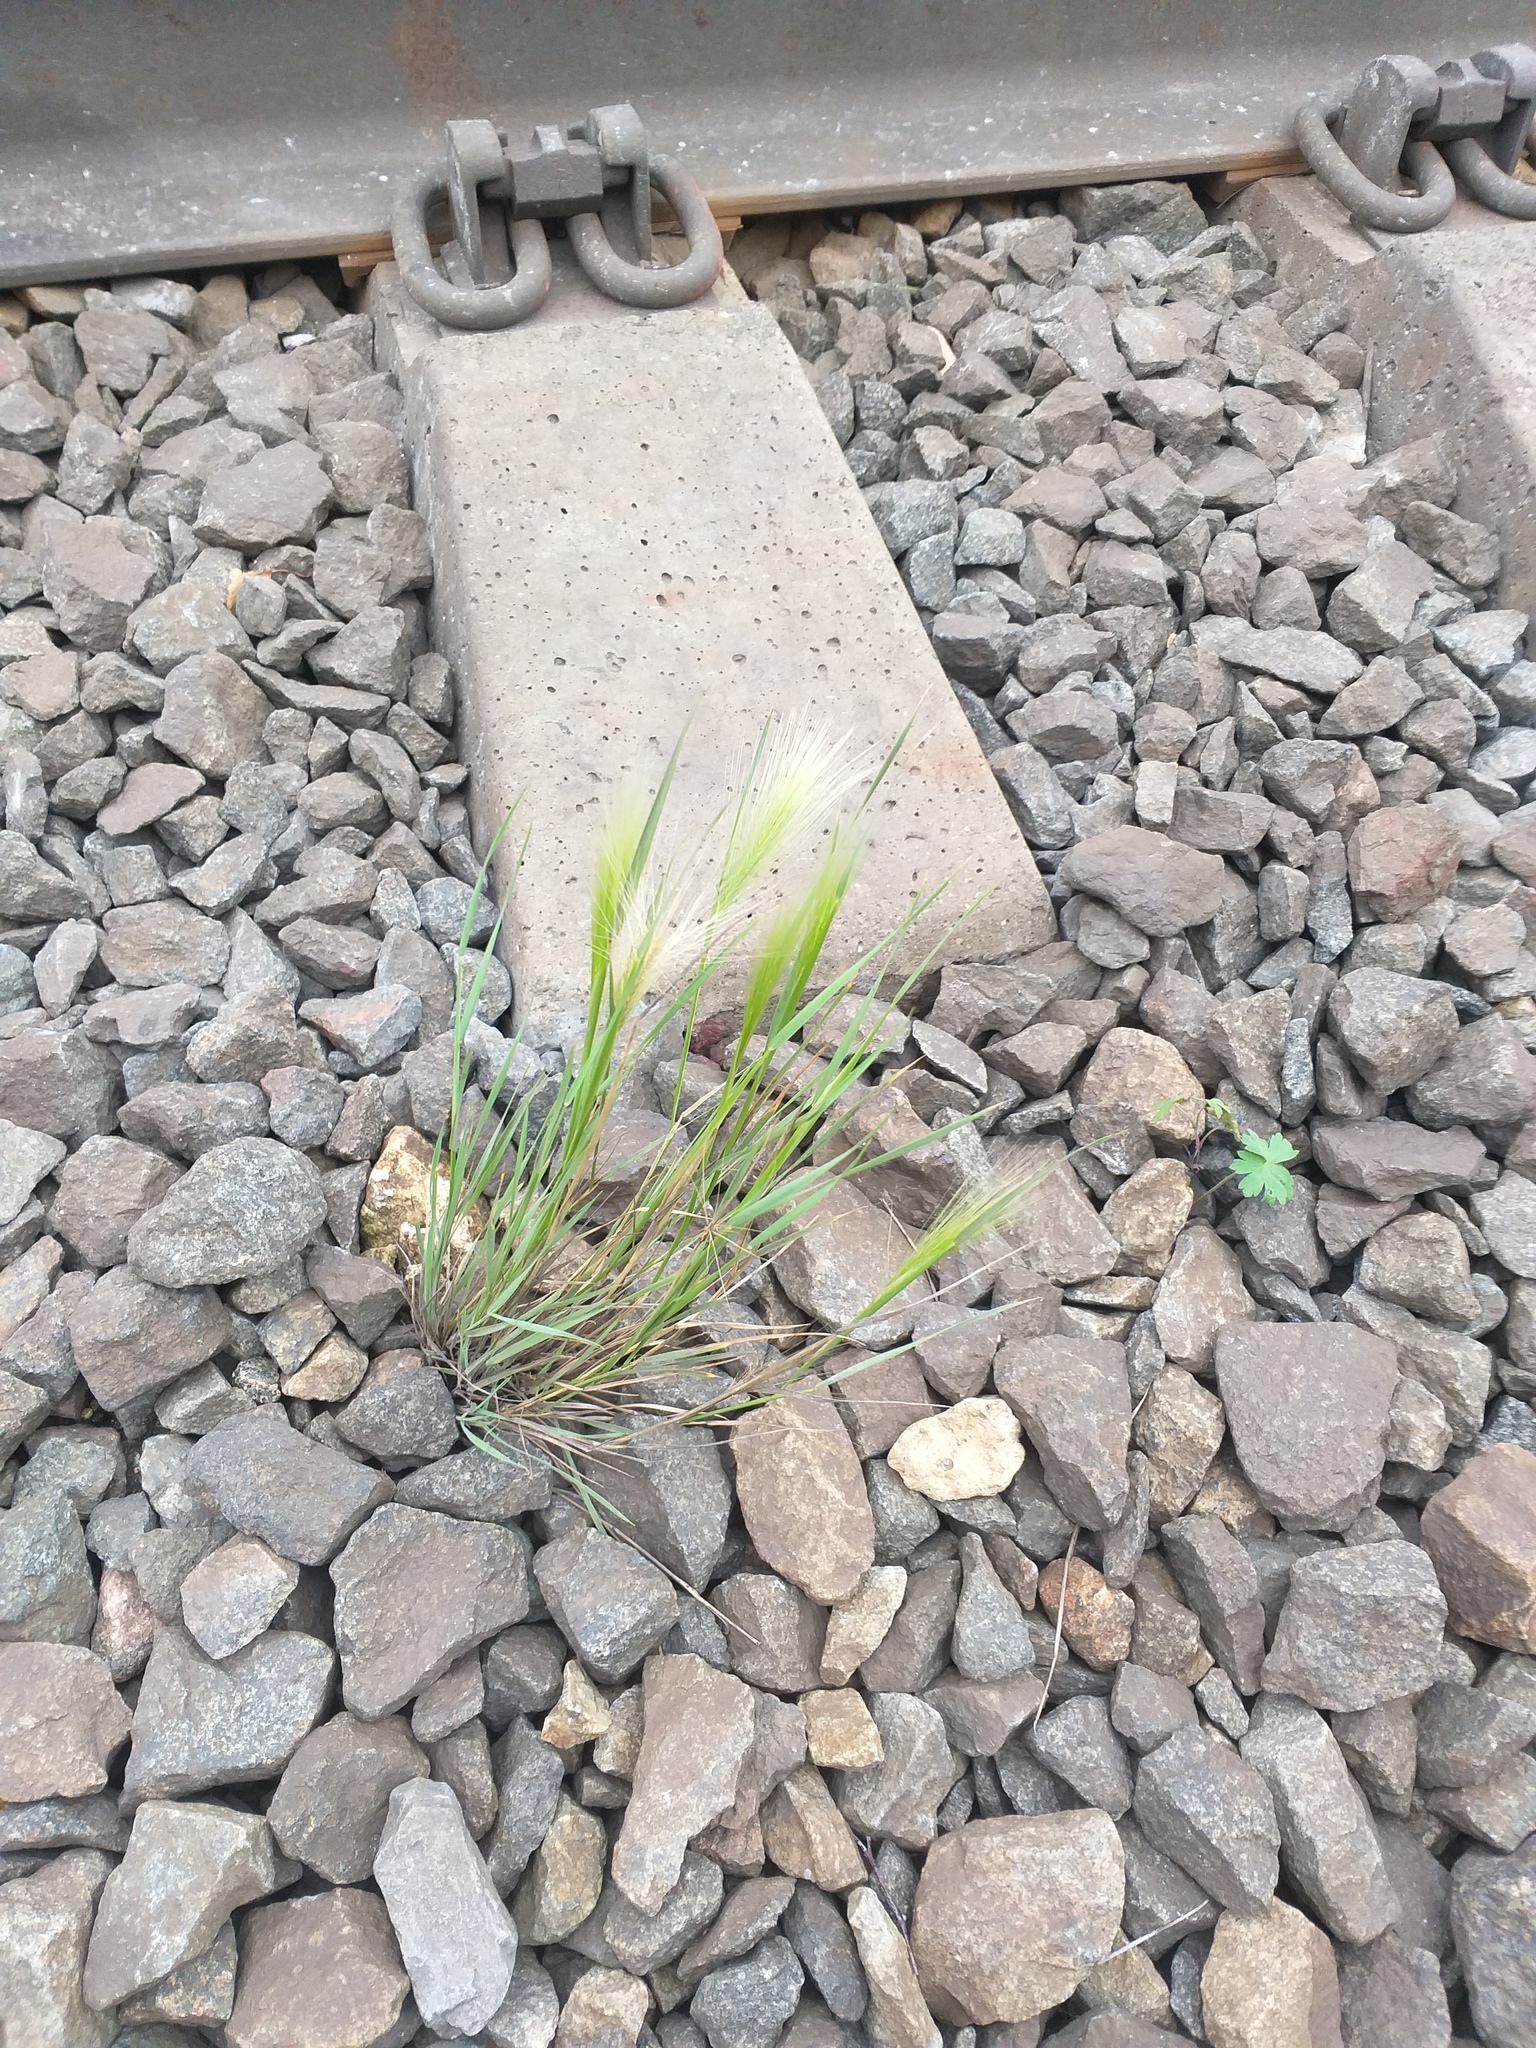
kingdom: Plantae
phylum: Tracheophyta
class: Liliopsida
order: Poales
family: Poaceae
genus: Hordeum
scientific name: Hordeum jubatum
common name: Foxtail barley
